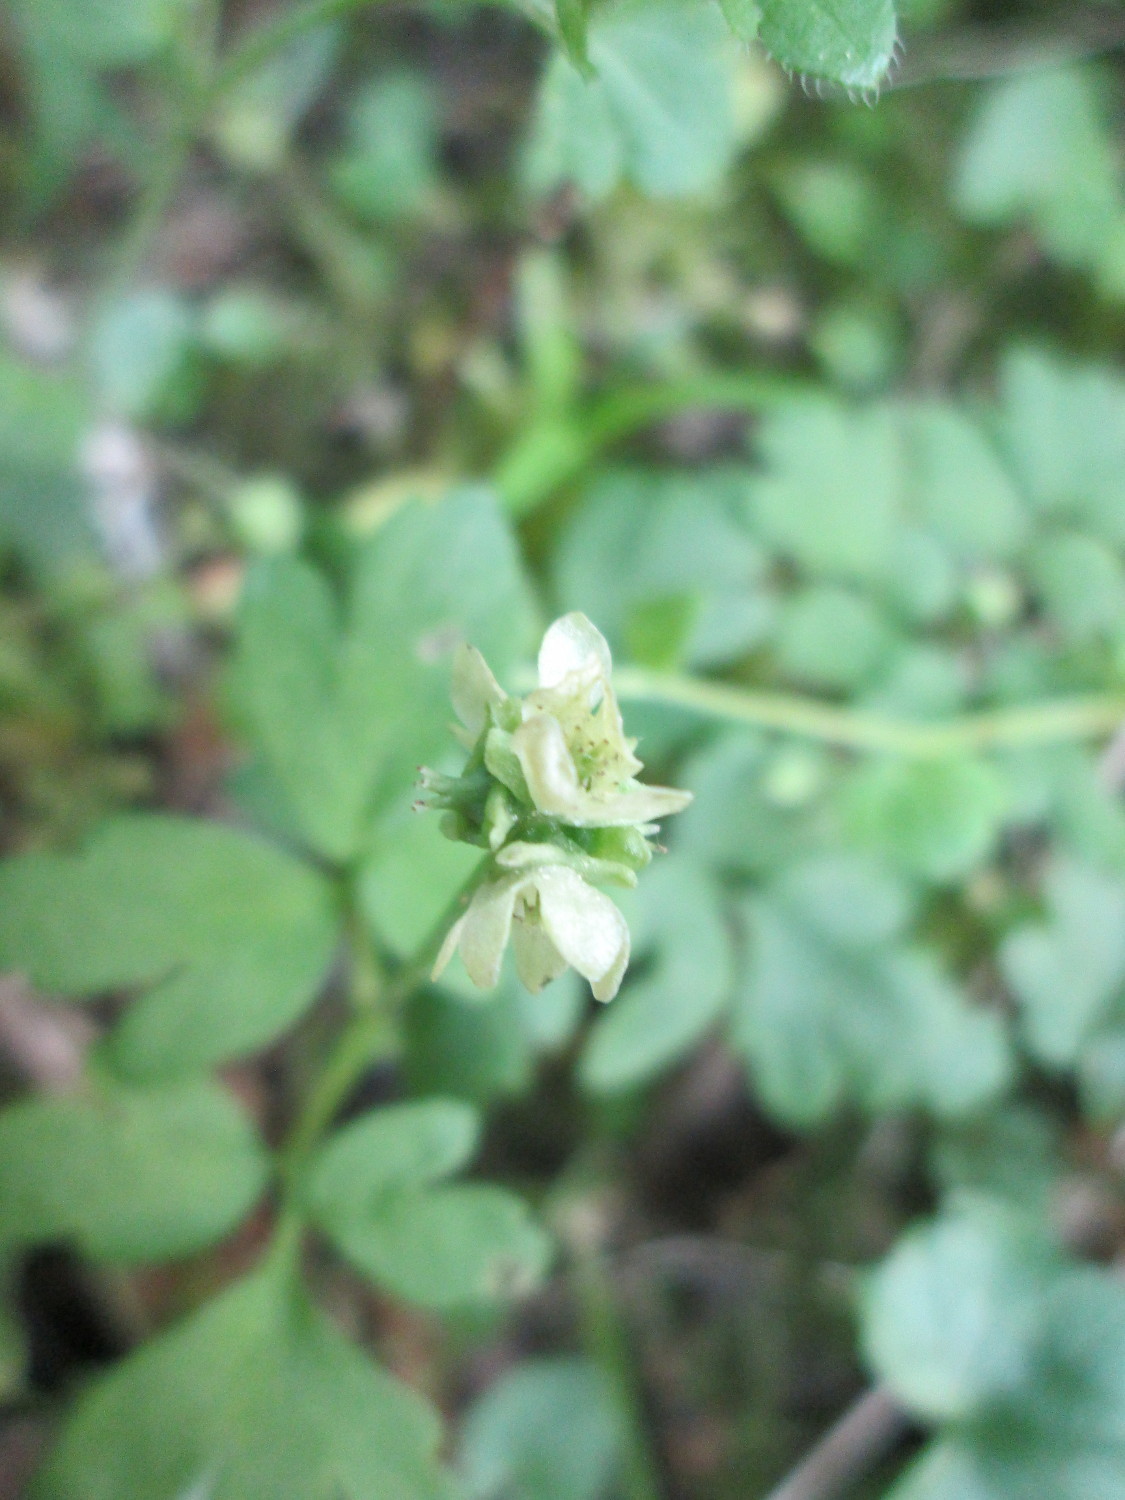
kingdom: Plantae
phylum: Tracheophyta
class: Magnoliopsida
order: Dipsacales
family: Viburnaceae
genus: Adoxa
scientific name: Adoxa moschatellina
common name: Moschatel
